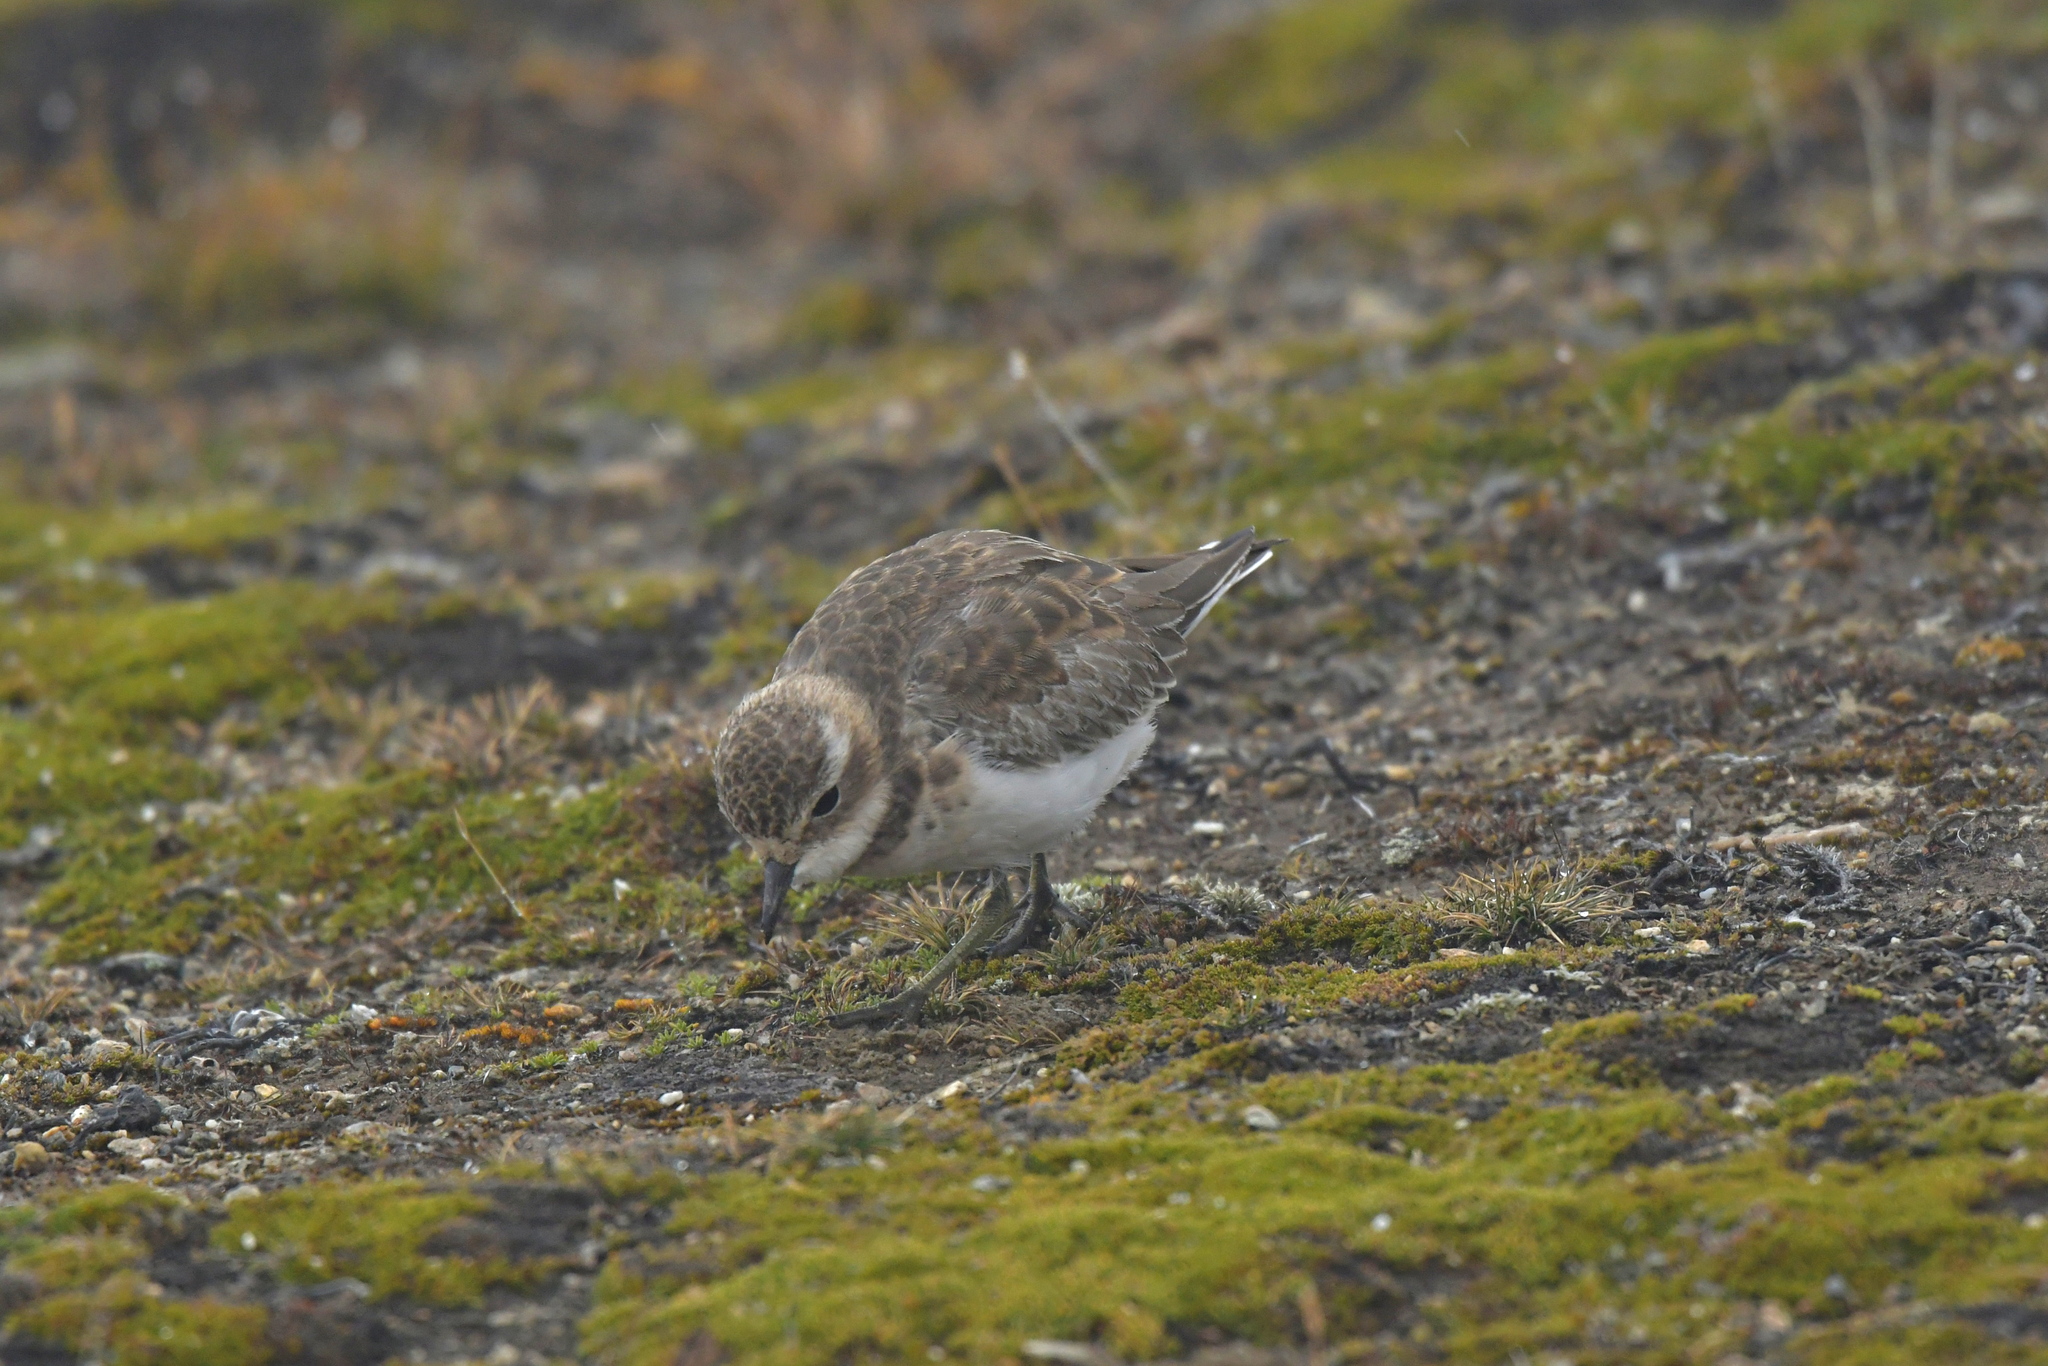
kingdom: Animalia
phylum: Chordata
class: Aves
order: Charadriiformes
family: Charadriidae
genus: Anarhynchus
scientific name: Anarhynchus
